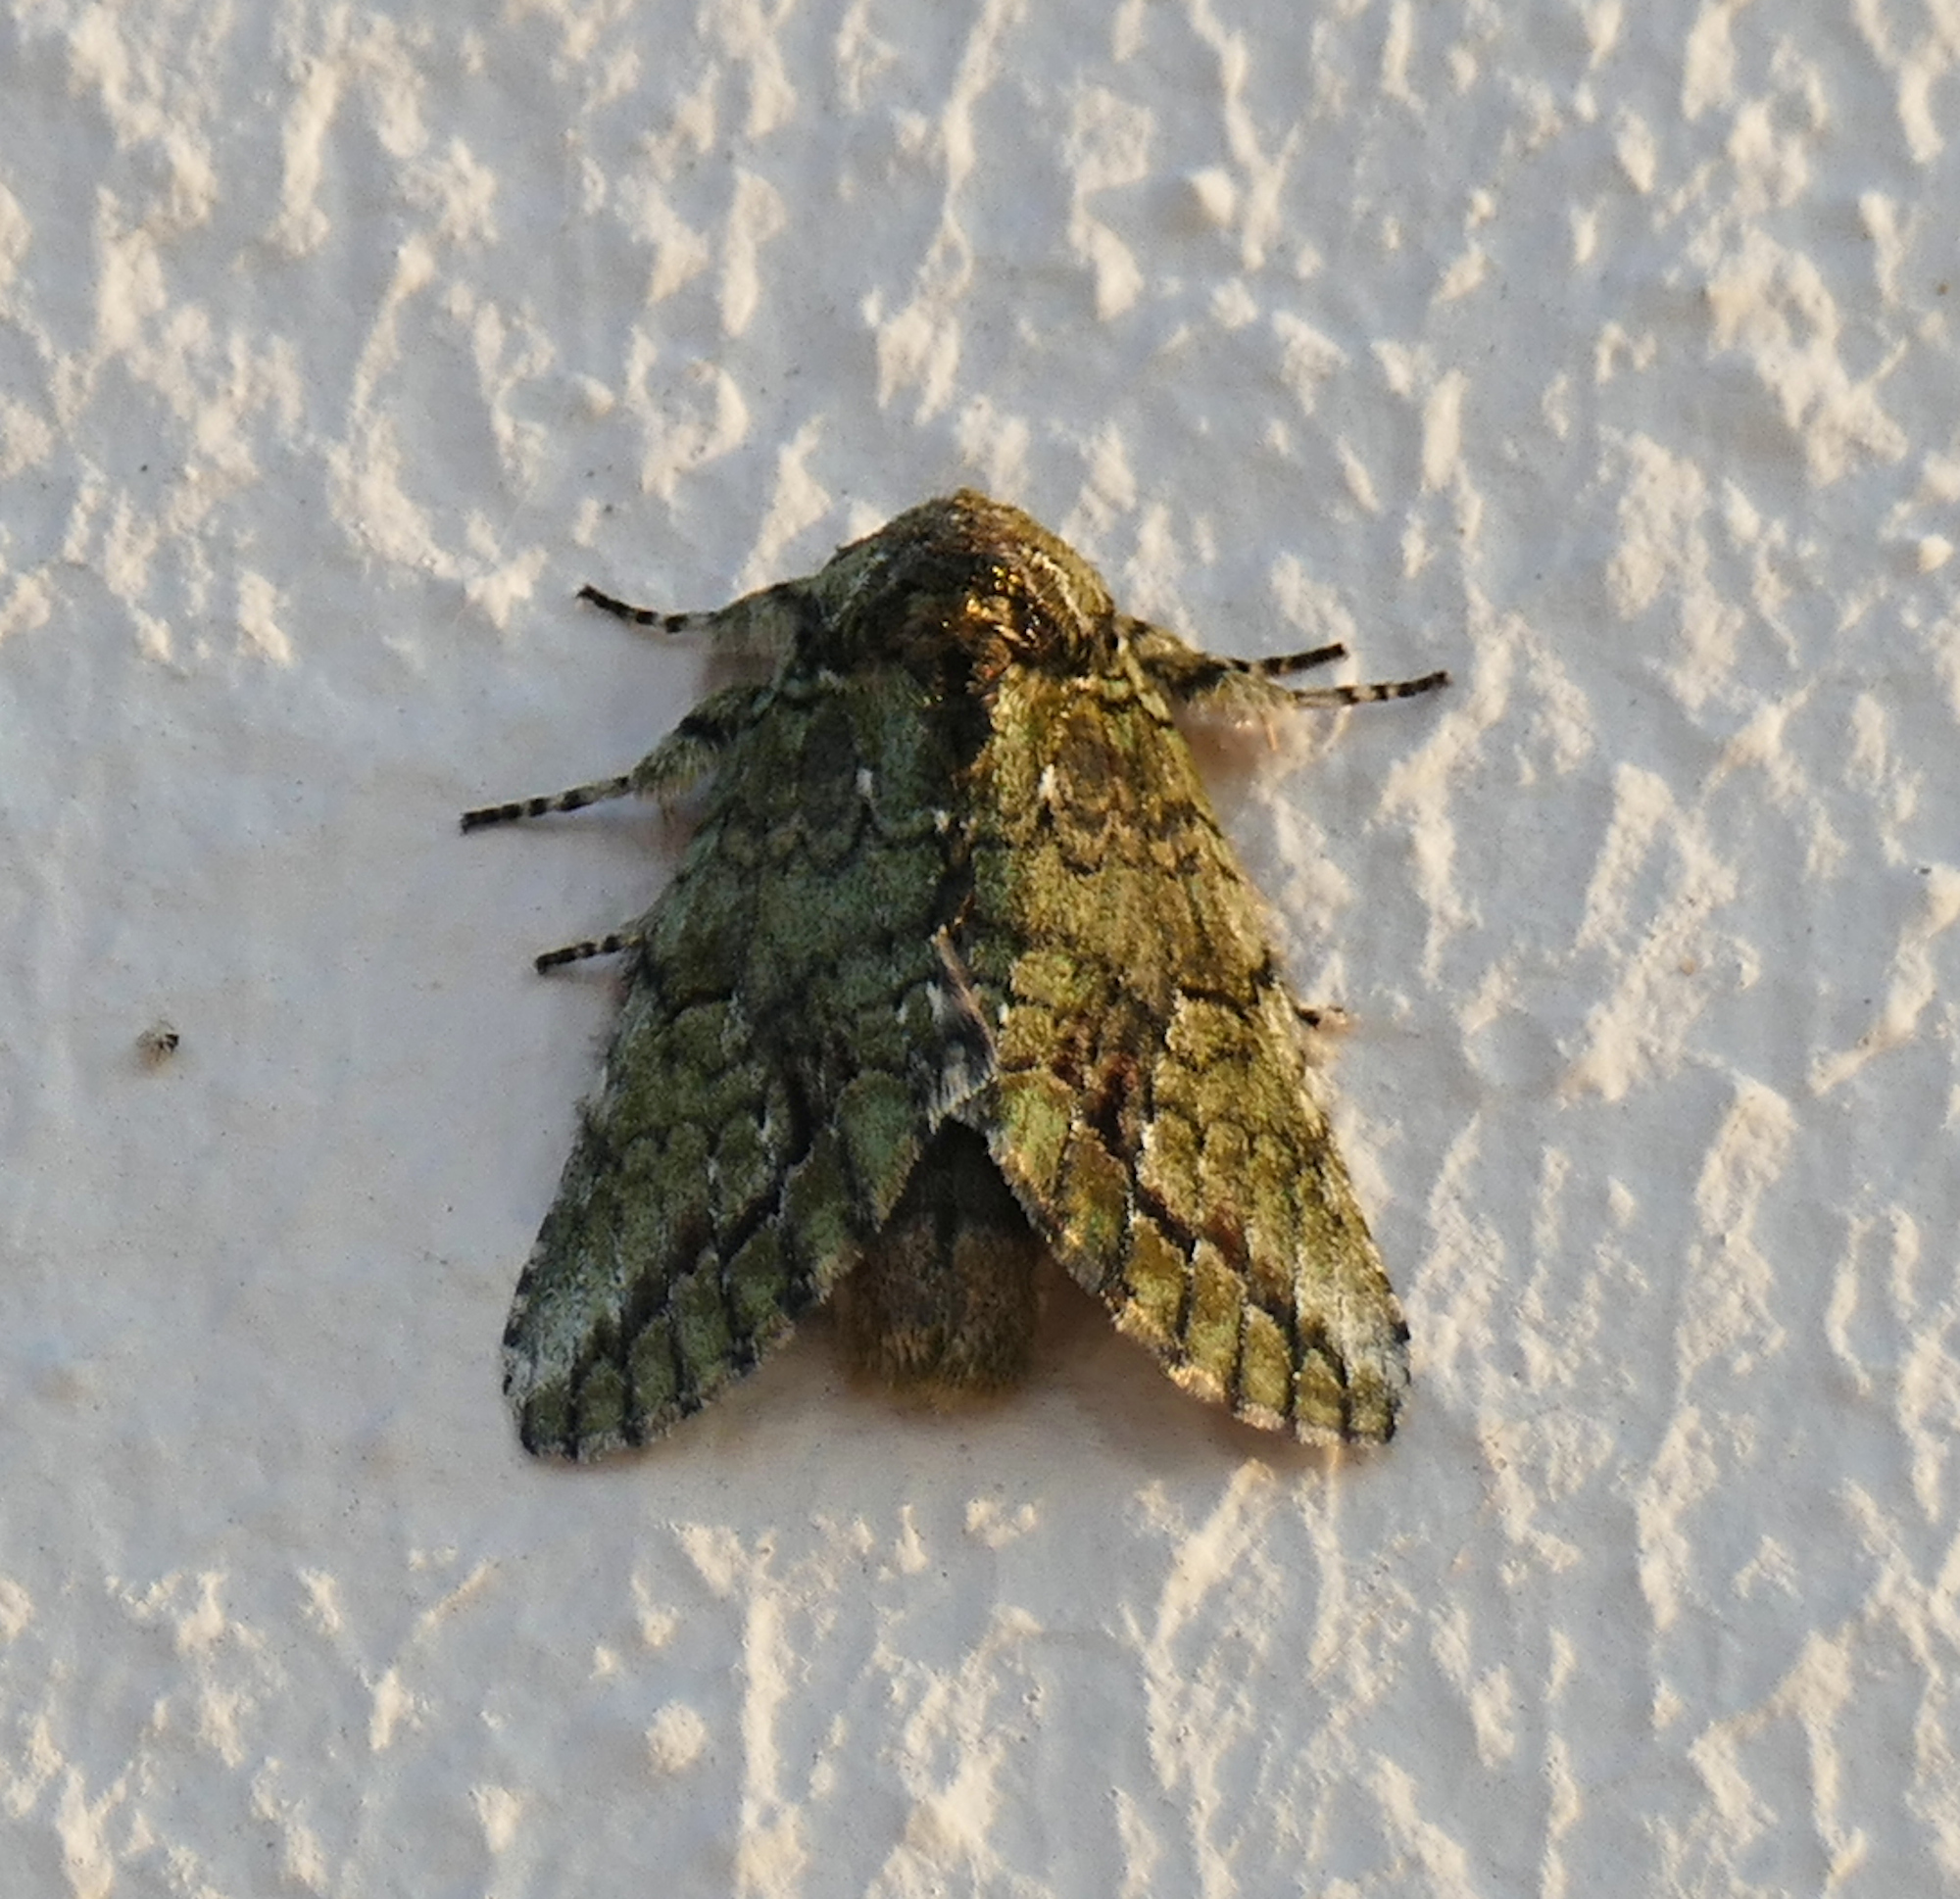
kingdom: Animalia
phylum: Arthropoda
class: Insecta
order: Lepidoptera
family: Notodontidae
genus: Heterocampa
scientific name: Heterocampa
